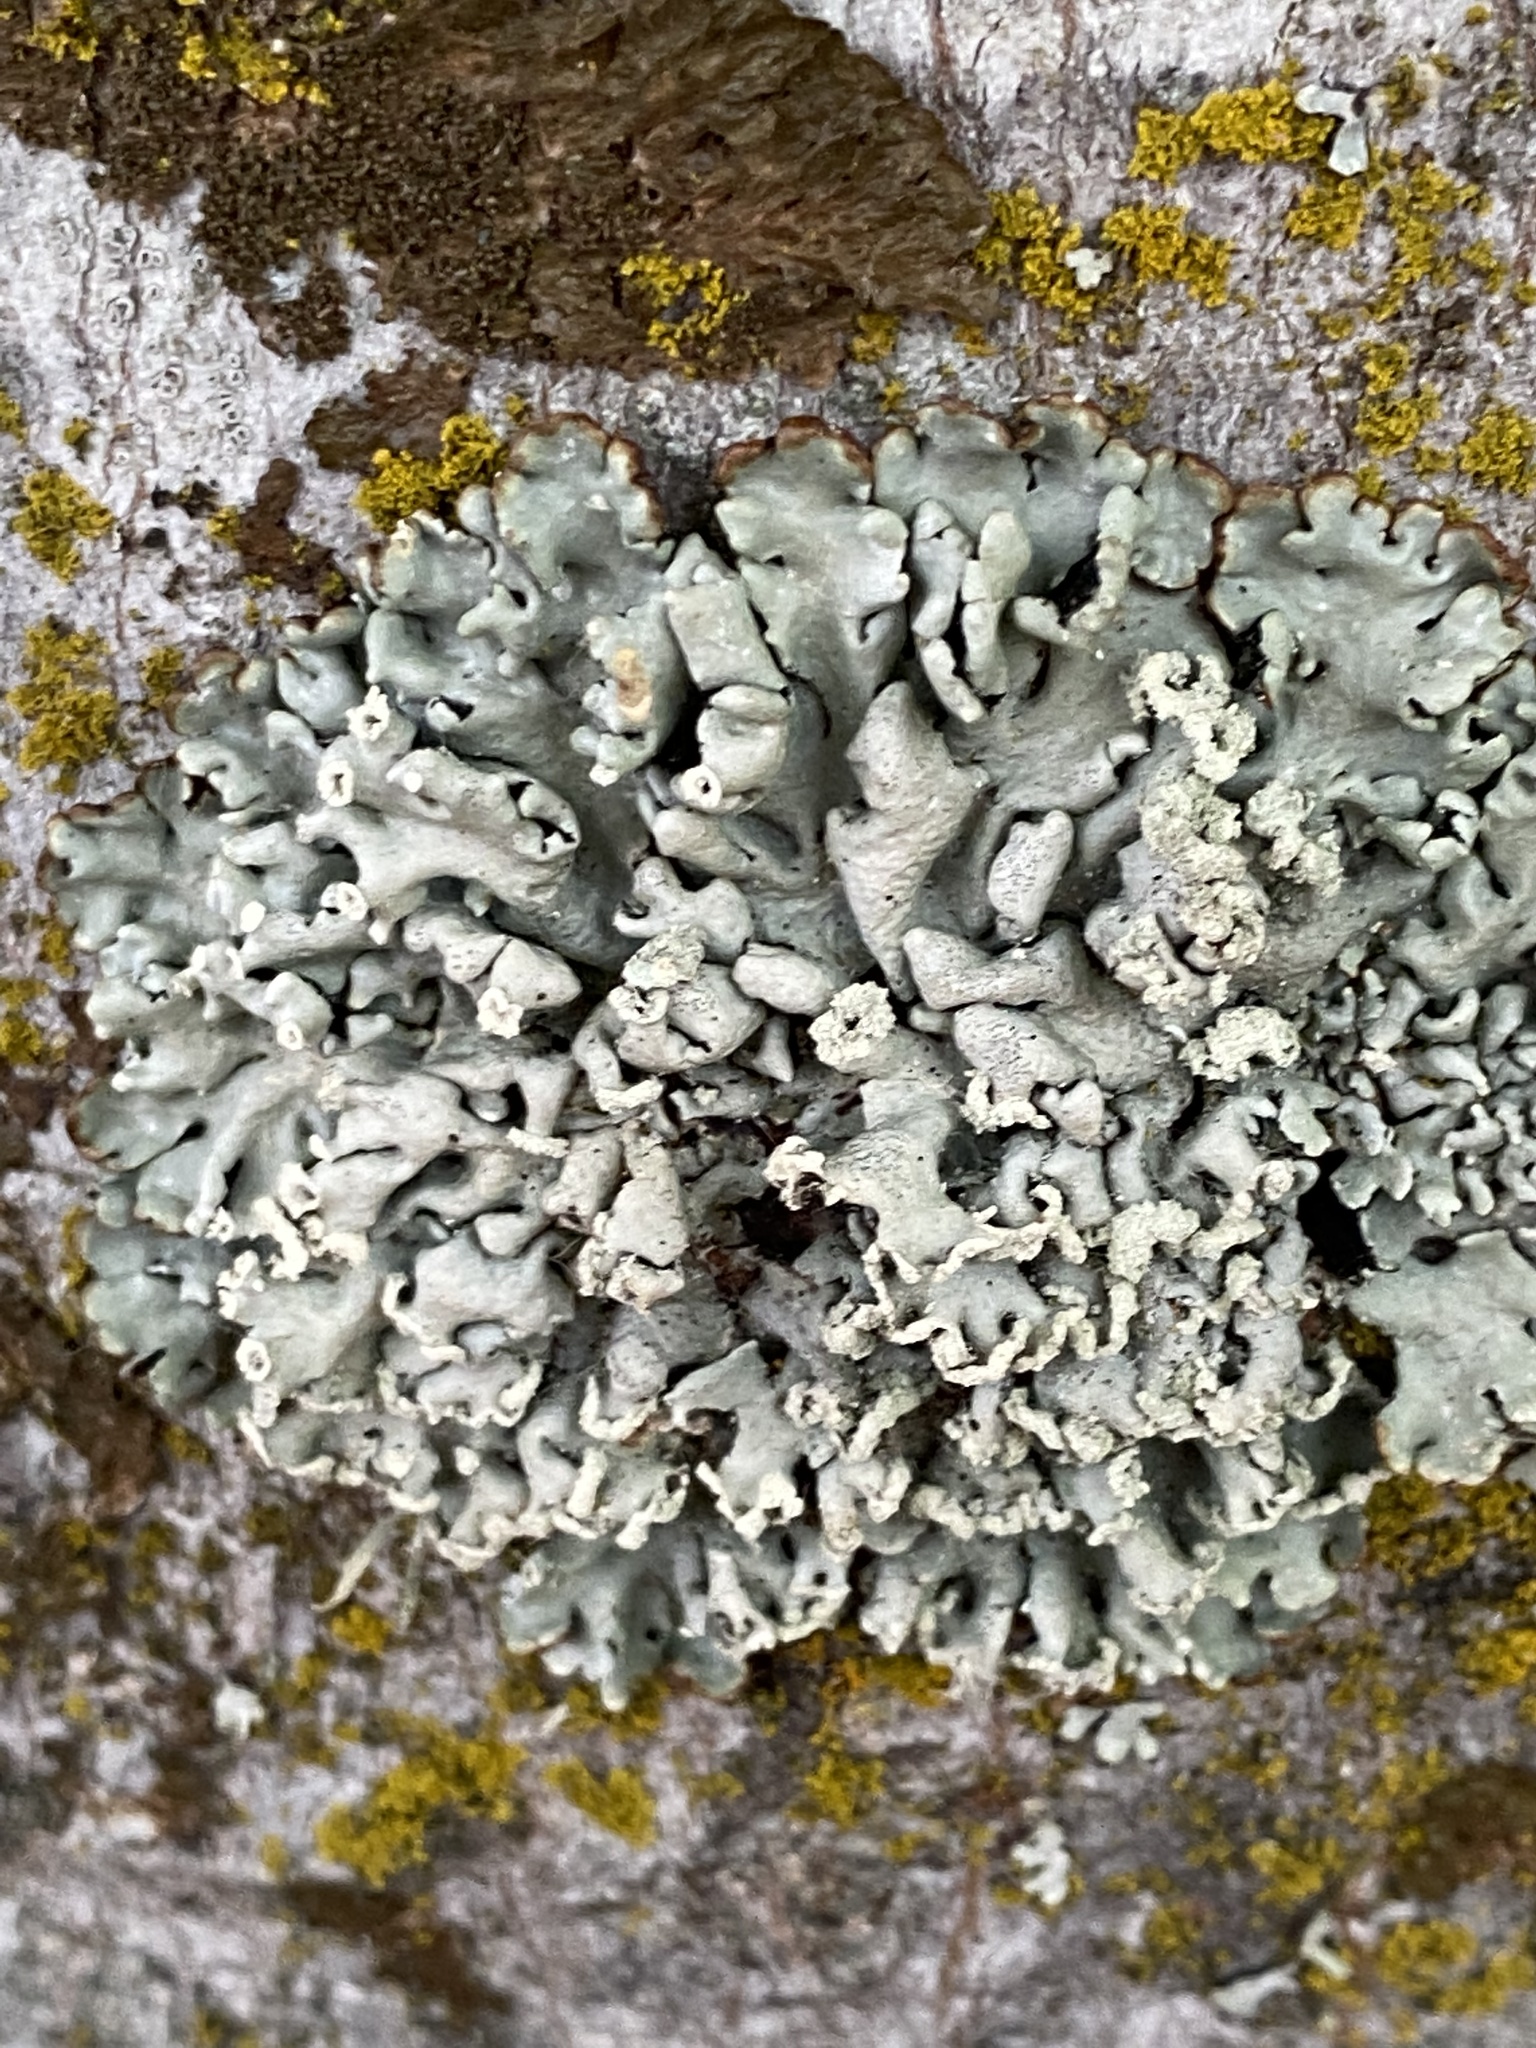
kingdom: Fungi
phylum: Ascomycota
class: Lecanoromycetes
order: Lecanorales
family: Parmeliaceae
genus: Hypogymnia
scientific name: Hypogymnia physodes
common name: Dark crottle
